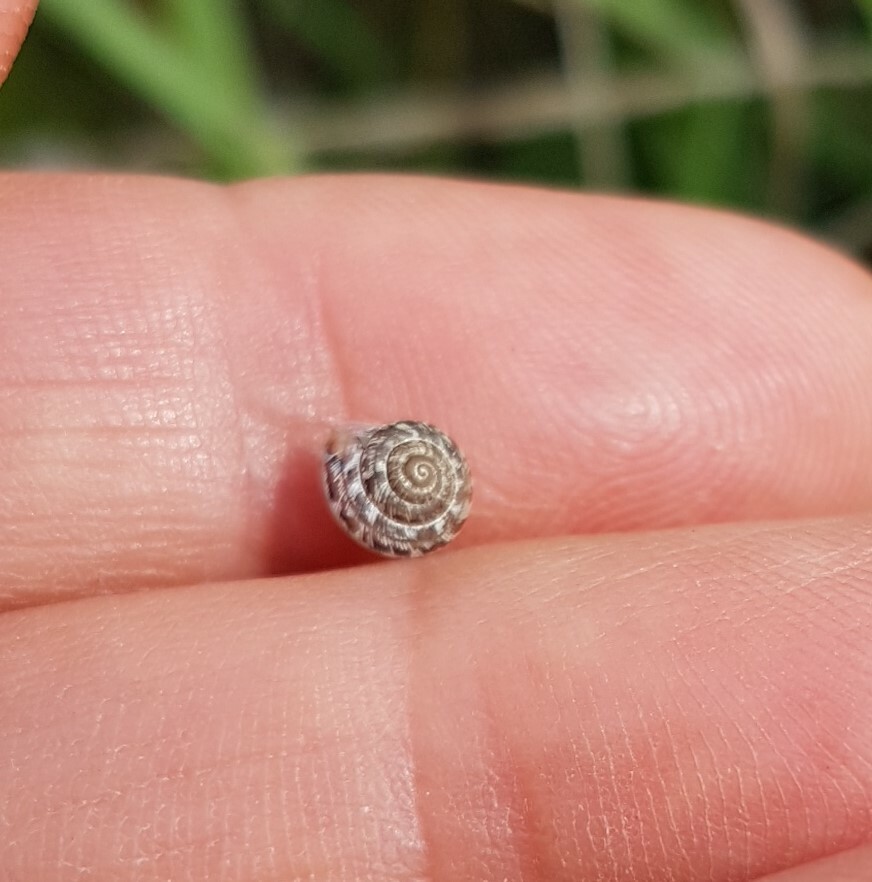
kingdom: Animalia
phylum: Mollusca
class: Gastropoda
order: Stylommatophora
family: Geomitridae
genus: Xeroplexa
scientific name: Xeroplexa intersecta
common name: Wrinkled snail
